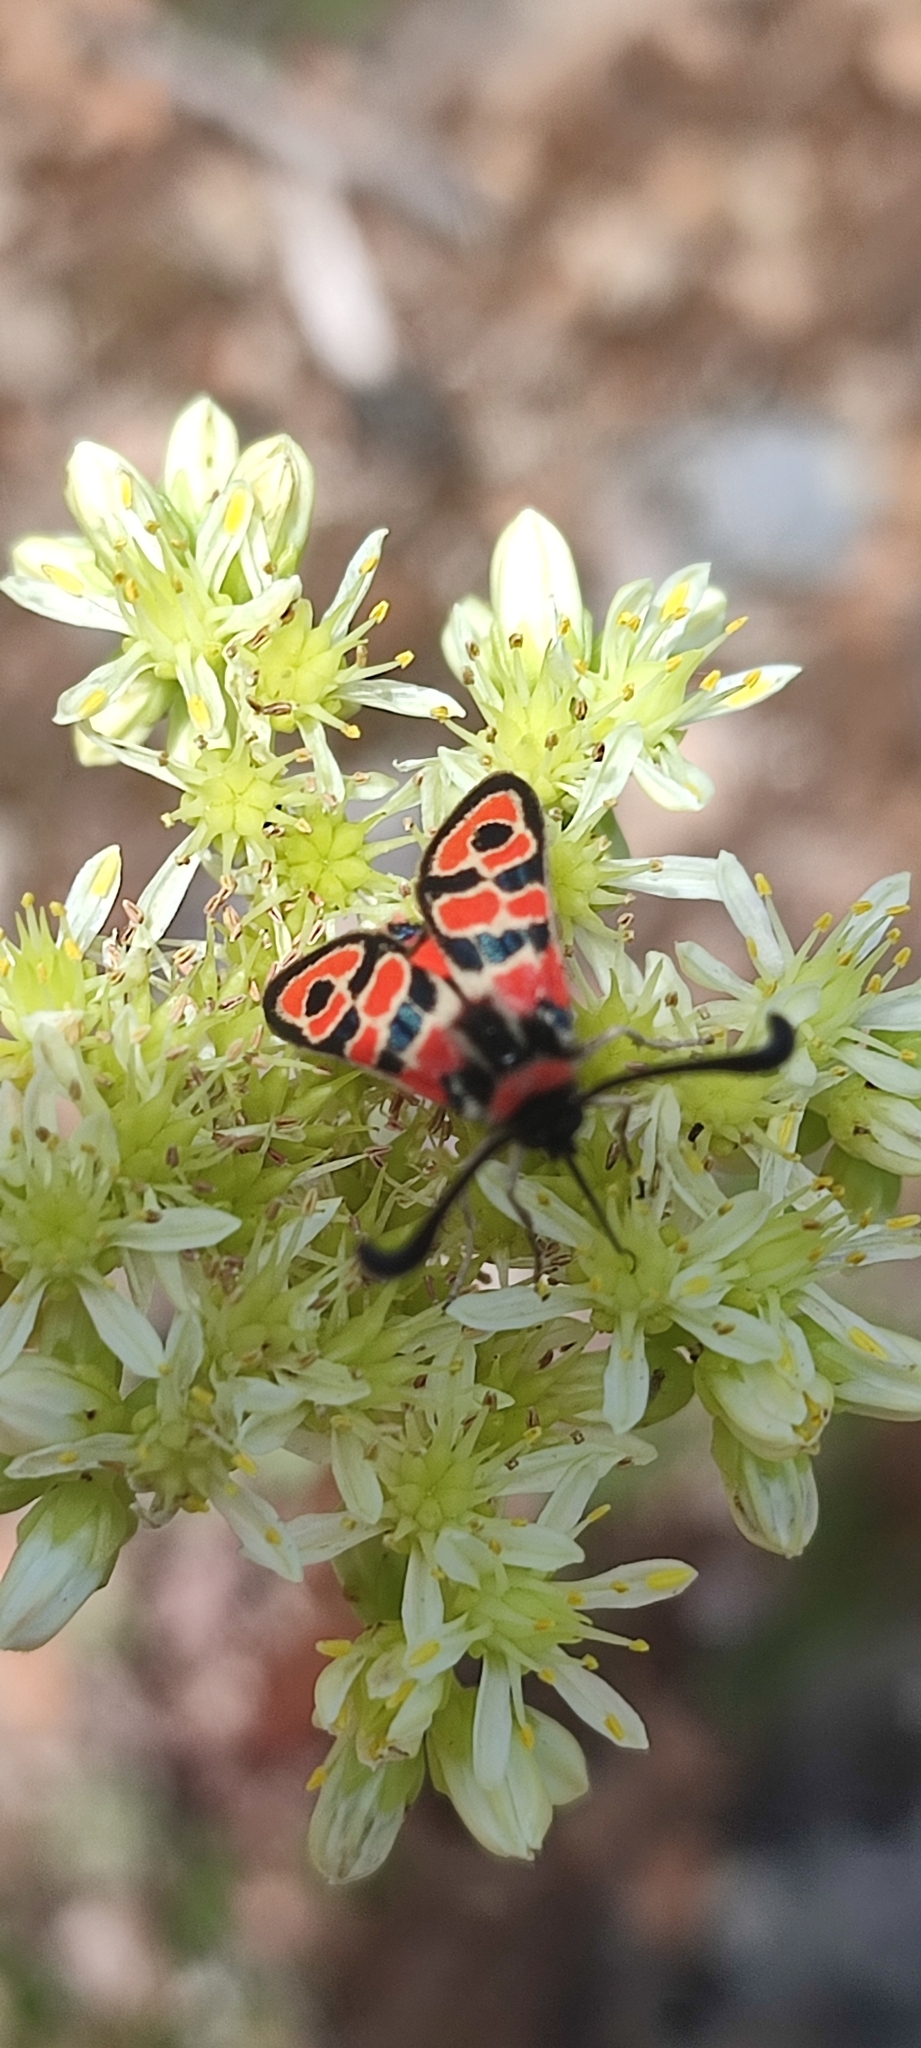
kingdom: Animalia
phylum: Arthropoda
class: Insecta
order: Lepidoptera
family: Zygaenidae
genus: Zygaena
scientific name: Zygaena fausta
